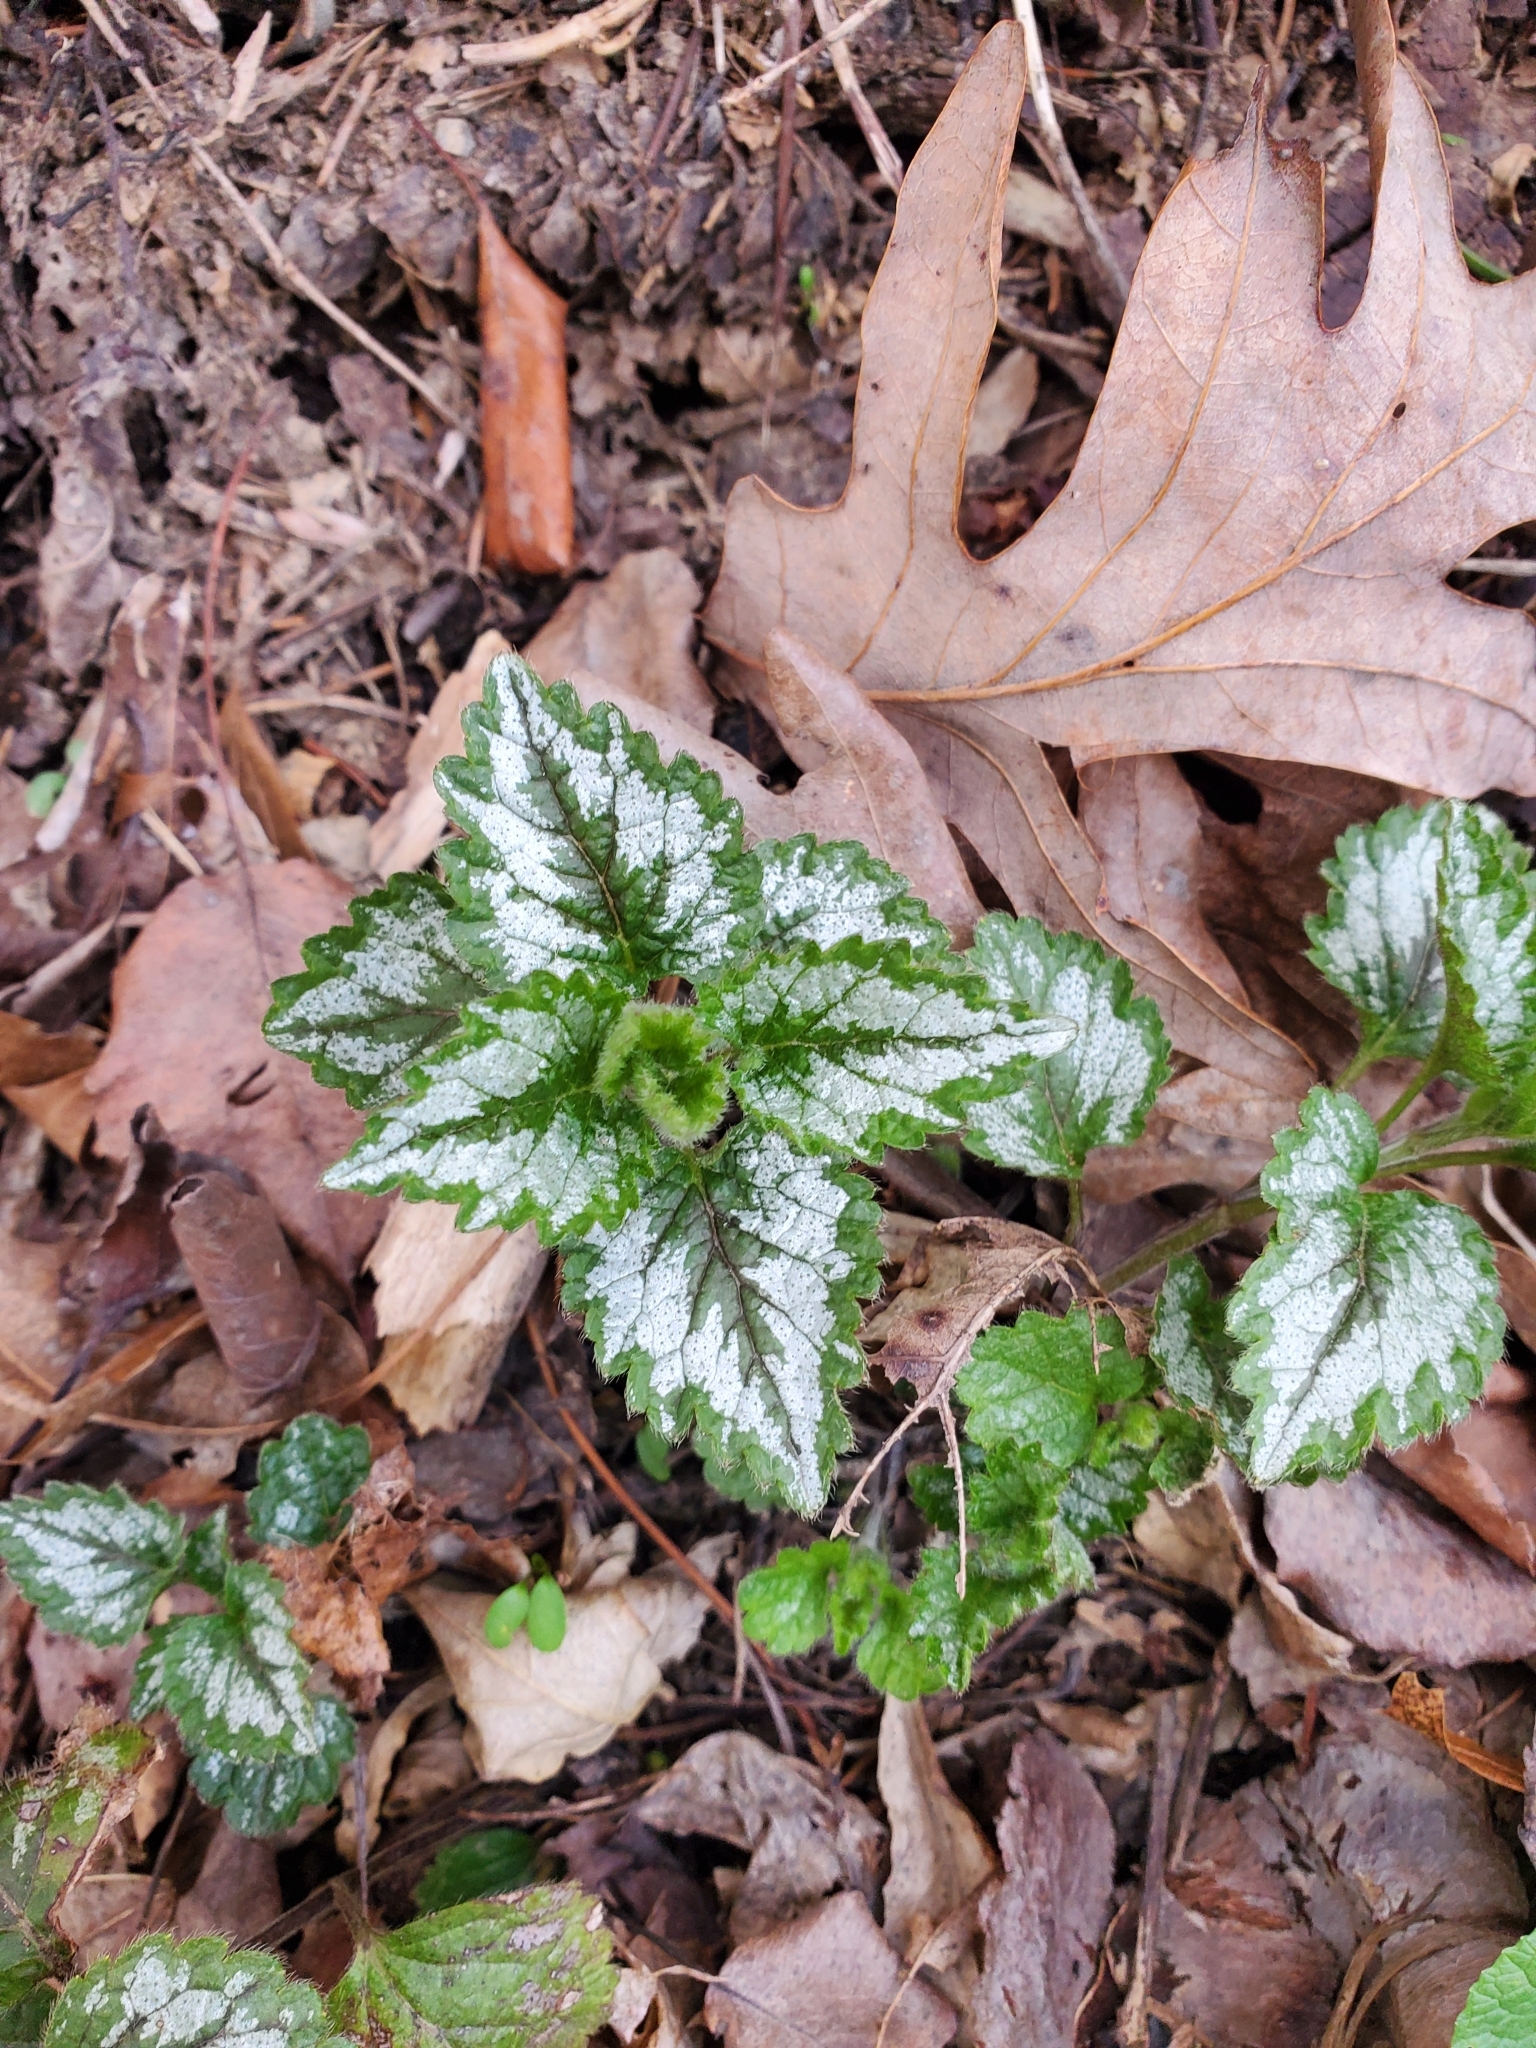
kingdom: Plantae
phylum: Tracheophyta
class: Magnoliopsida
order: Lamiales
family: Lamiaceae
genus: Lamium
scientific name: Lamium galeobdolon
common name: Yellow archangel
